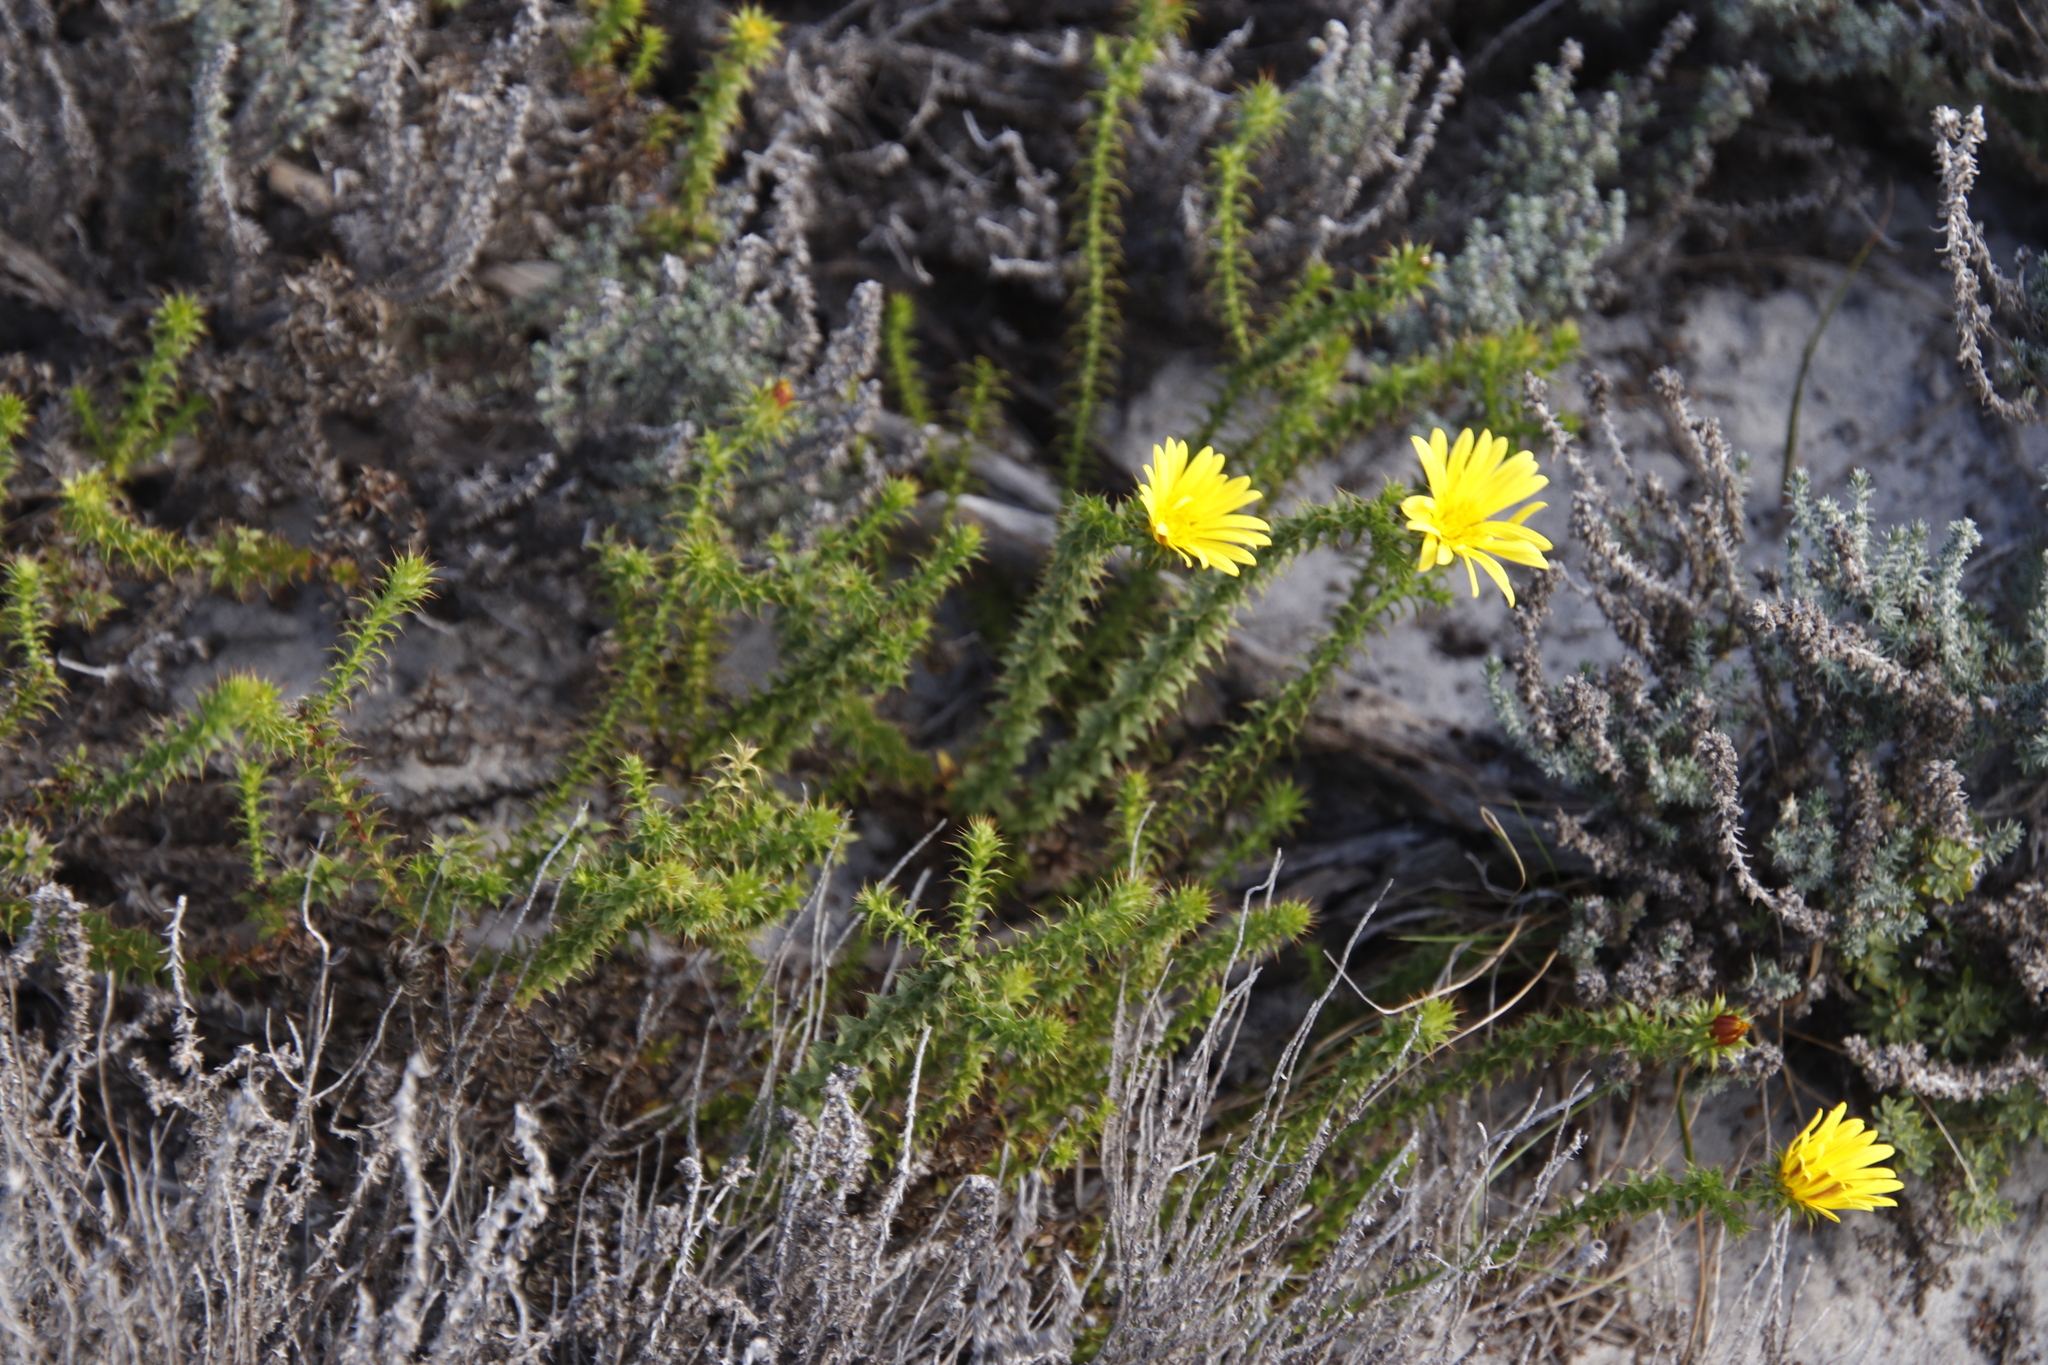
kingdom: Plantae
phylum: Tracheophyta
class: Magnoliopsida
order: Asterales
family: Asteraceae
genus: Cullumia
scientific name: Cullumia setosa
